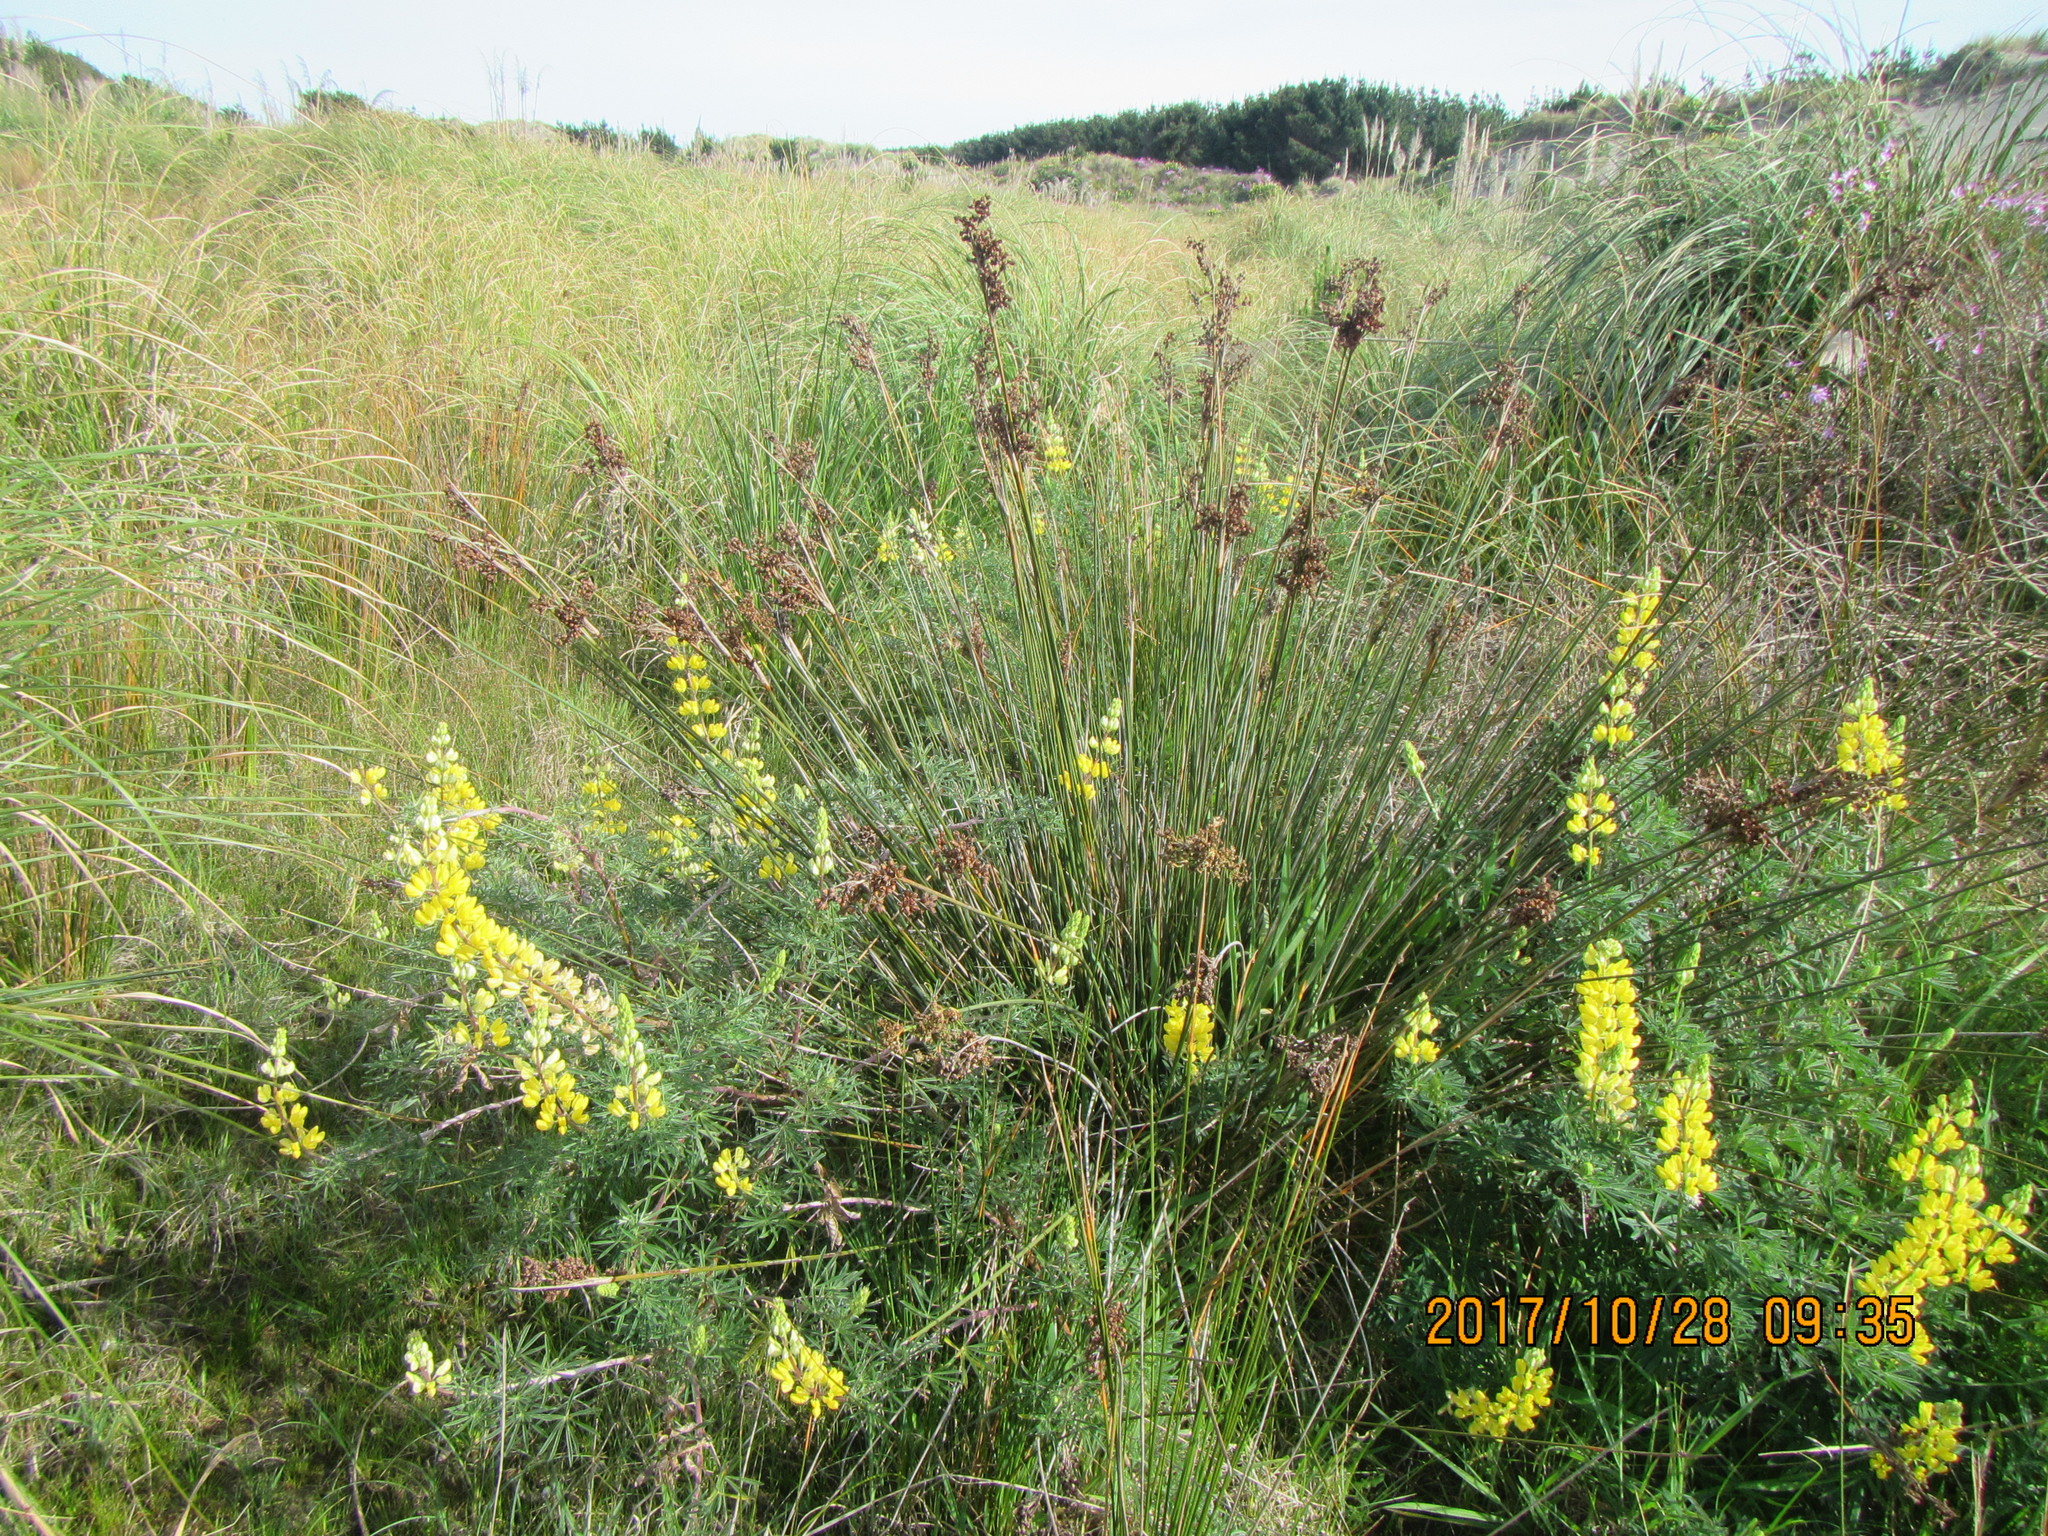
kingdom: Plantae
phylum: Tracheophyta
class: Liliopsida
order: Poales
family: Juncaceae
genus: Juncus
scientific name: Juncus acutus
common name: Sharp rush
